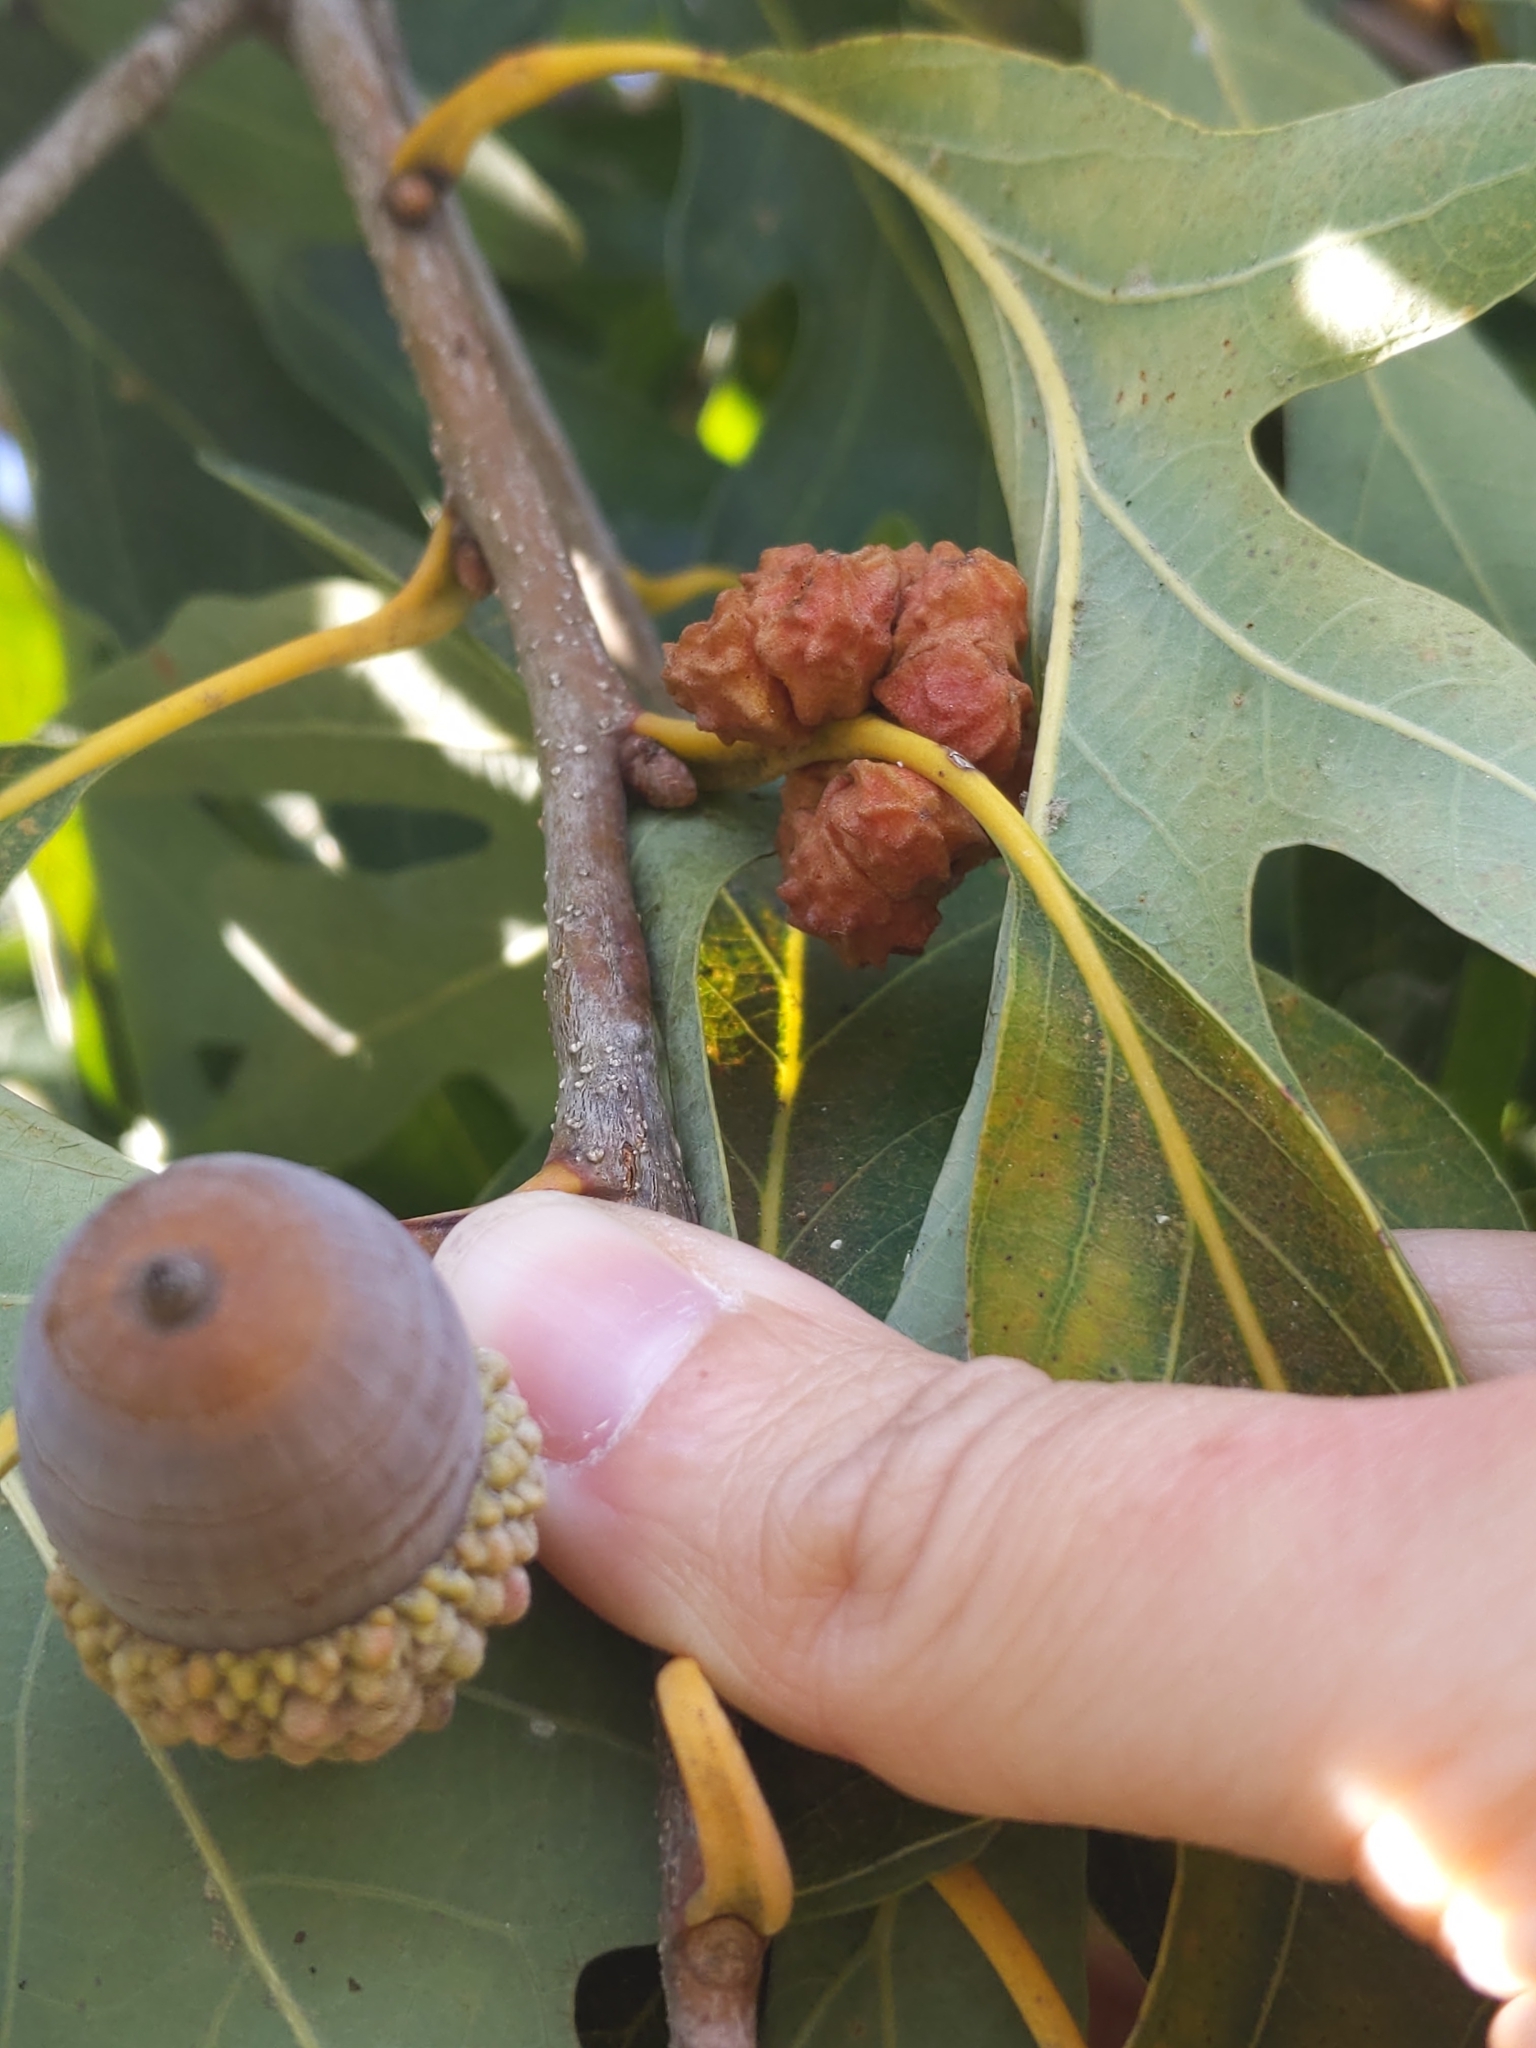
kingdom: Animalia
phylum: Arthropoda
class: Insecta
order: Hymenoptera
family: Cynipidae
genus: Andricus
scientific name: Andricus
